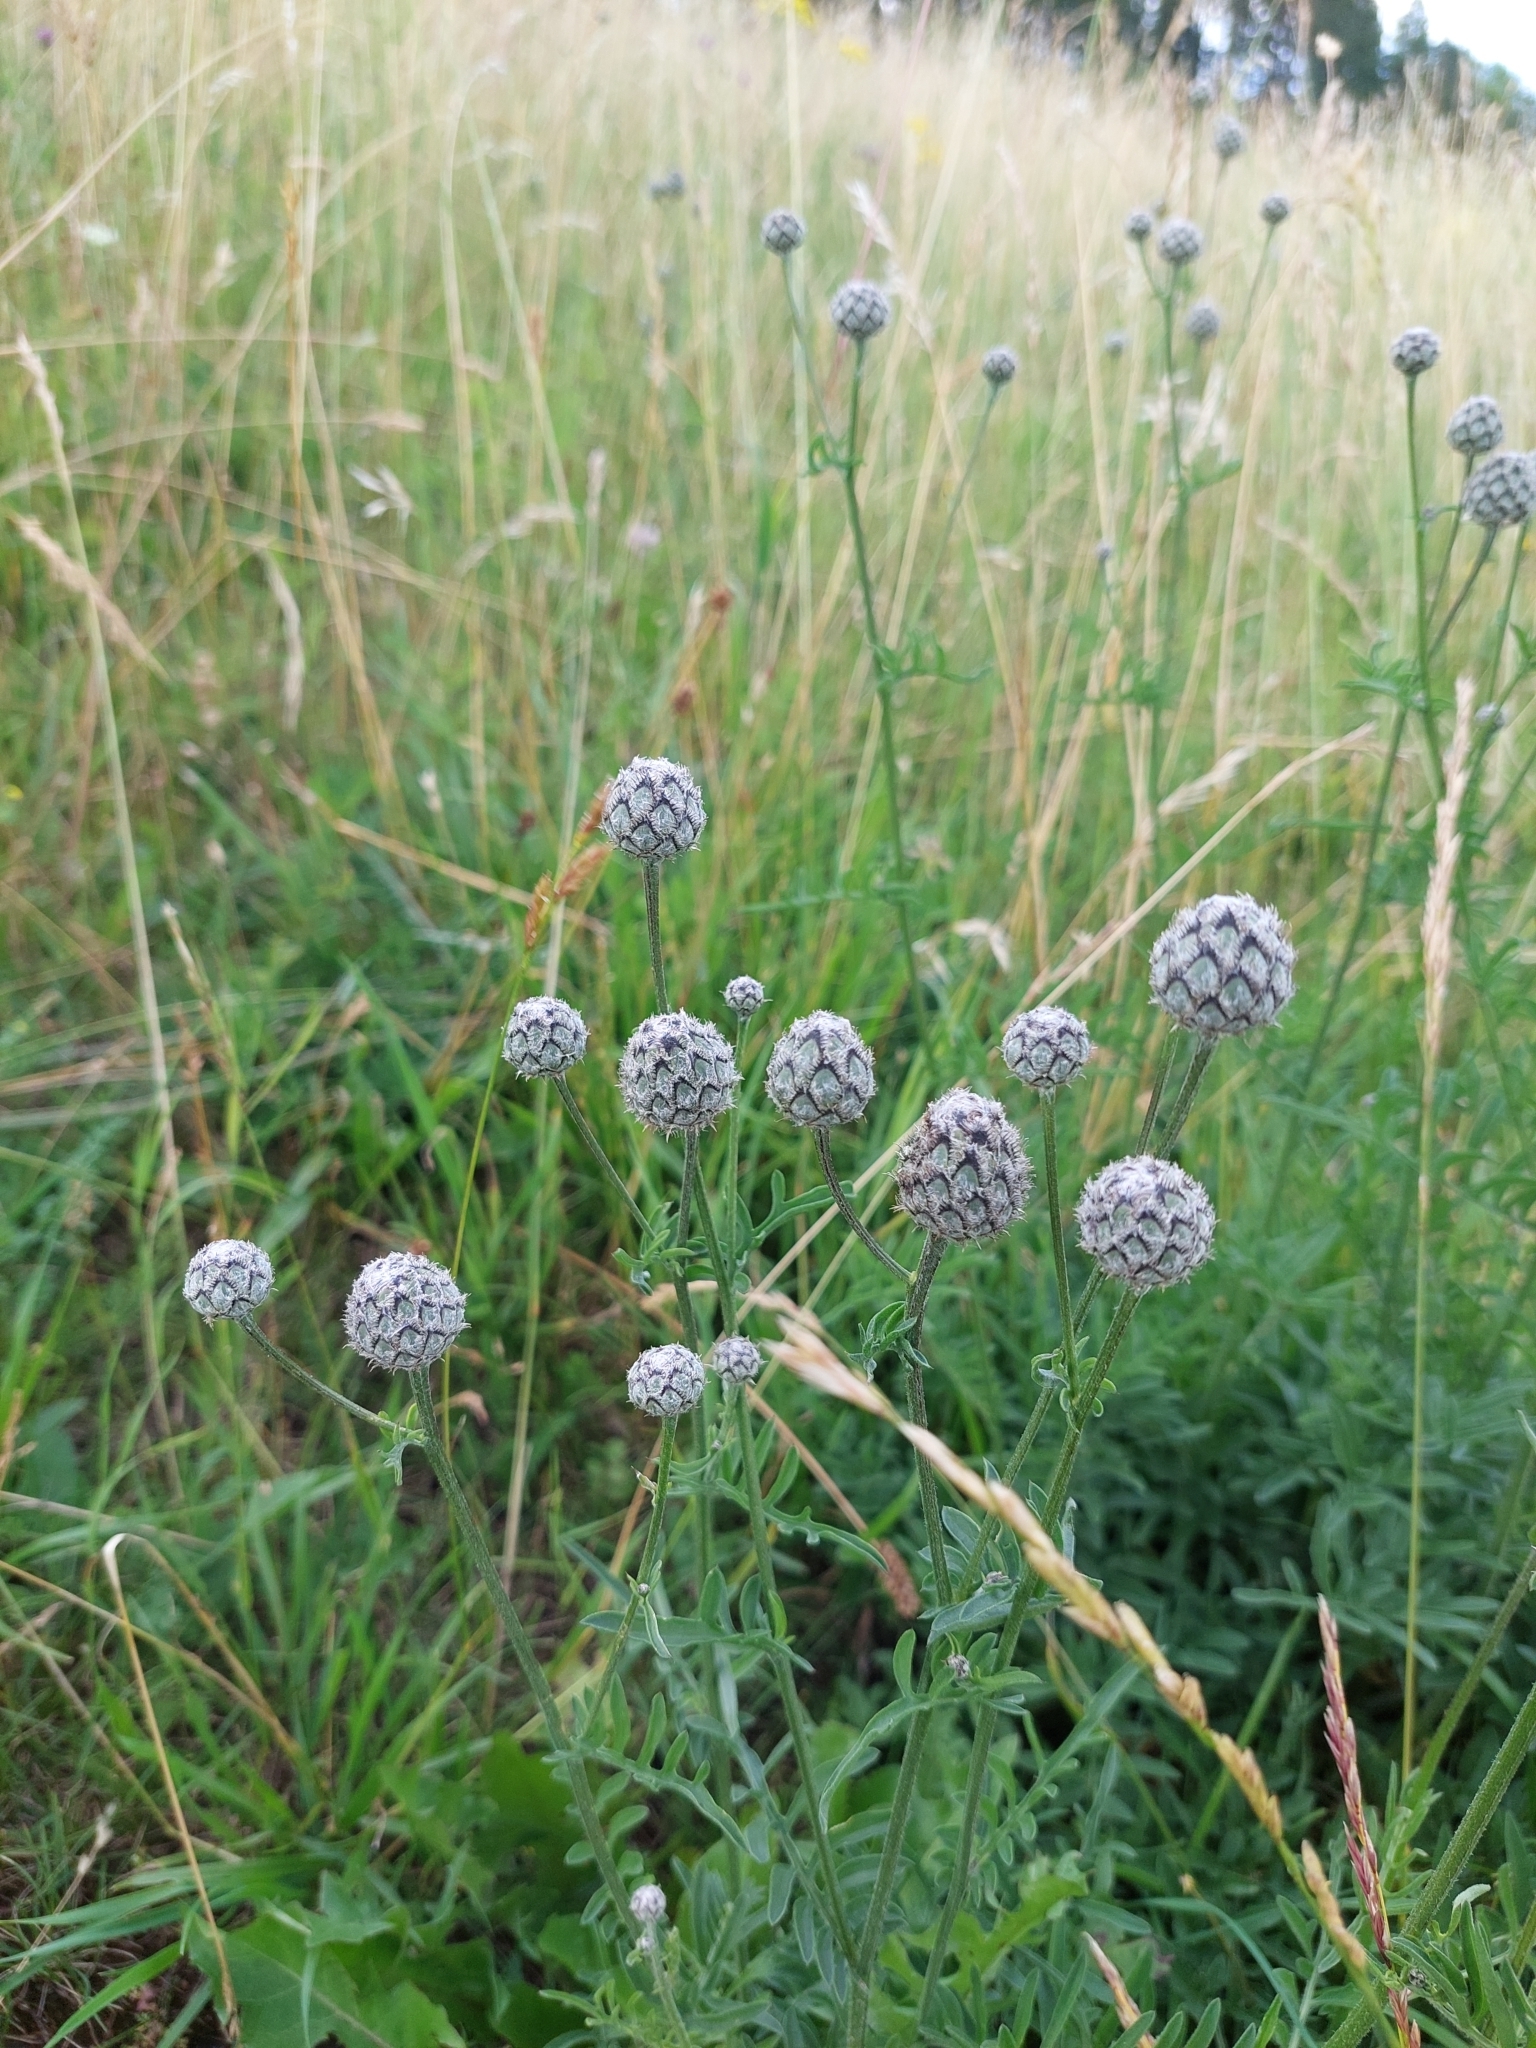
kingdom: Plantae
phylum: Tracheophyta
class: Magnoliopsida
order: Asterales
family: Asteraceae
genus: Centaurea
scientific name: Centaurea scabiosa
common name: Greater knapweed
